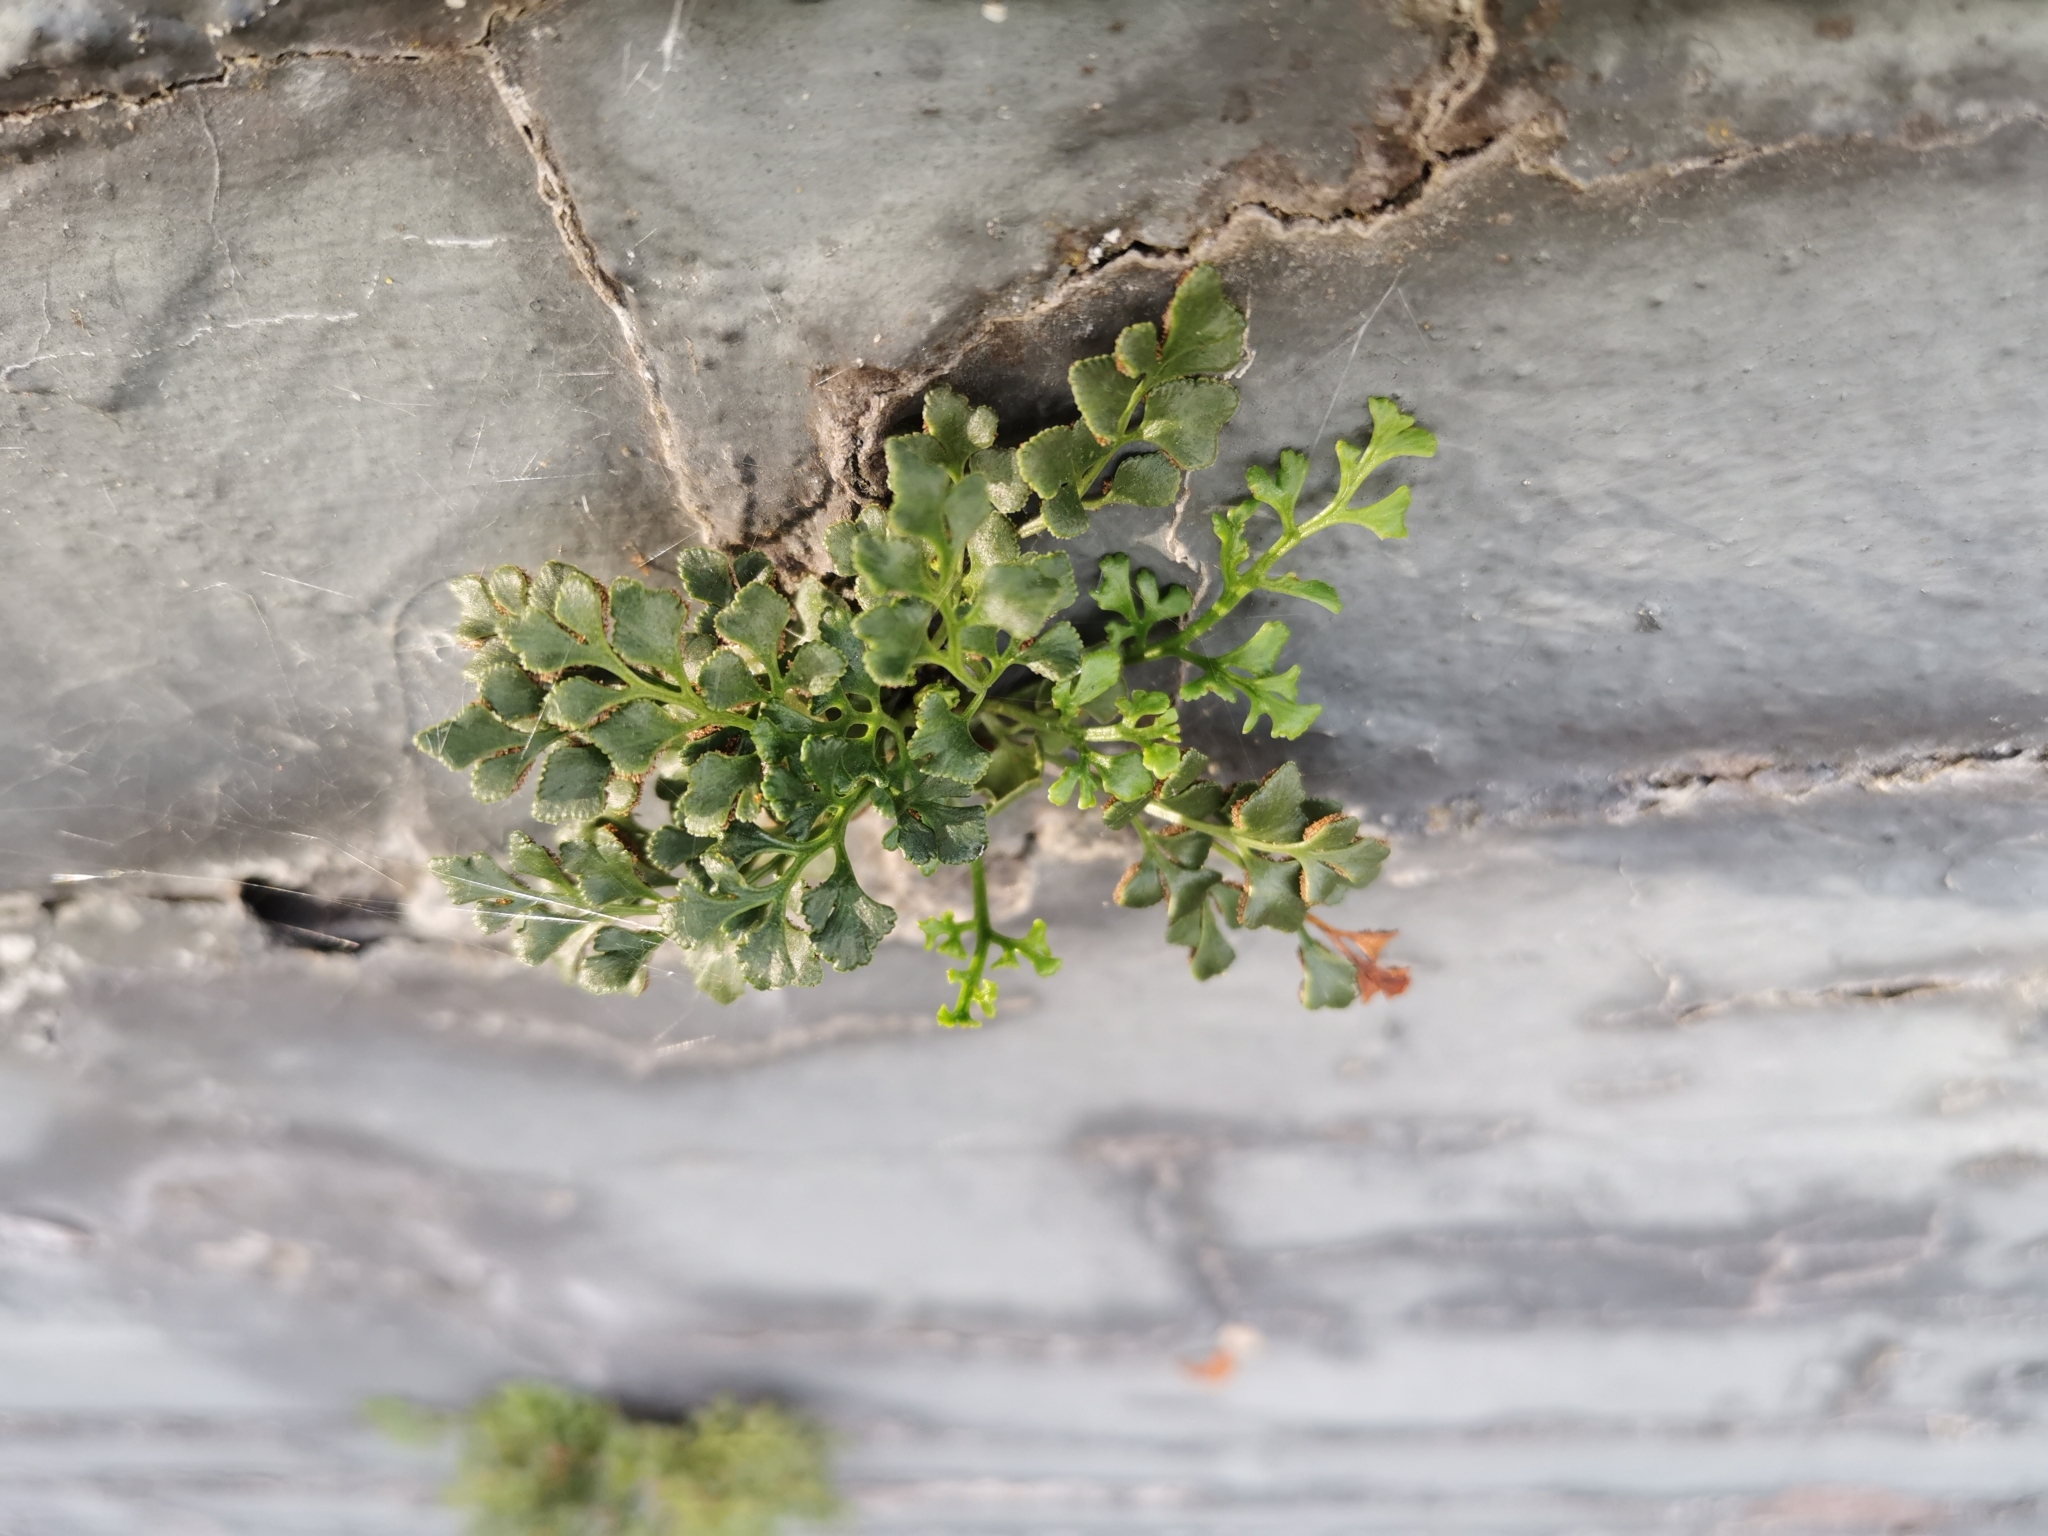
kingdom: Plantae
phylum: Tracheophyta
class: Polypodiopsida
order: Polypodiales
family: Aspleniaceae
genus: Asplenium
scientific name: Asplenium ruta-muraria
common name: Wall-rue
